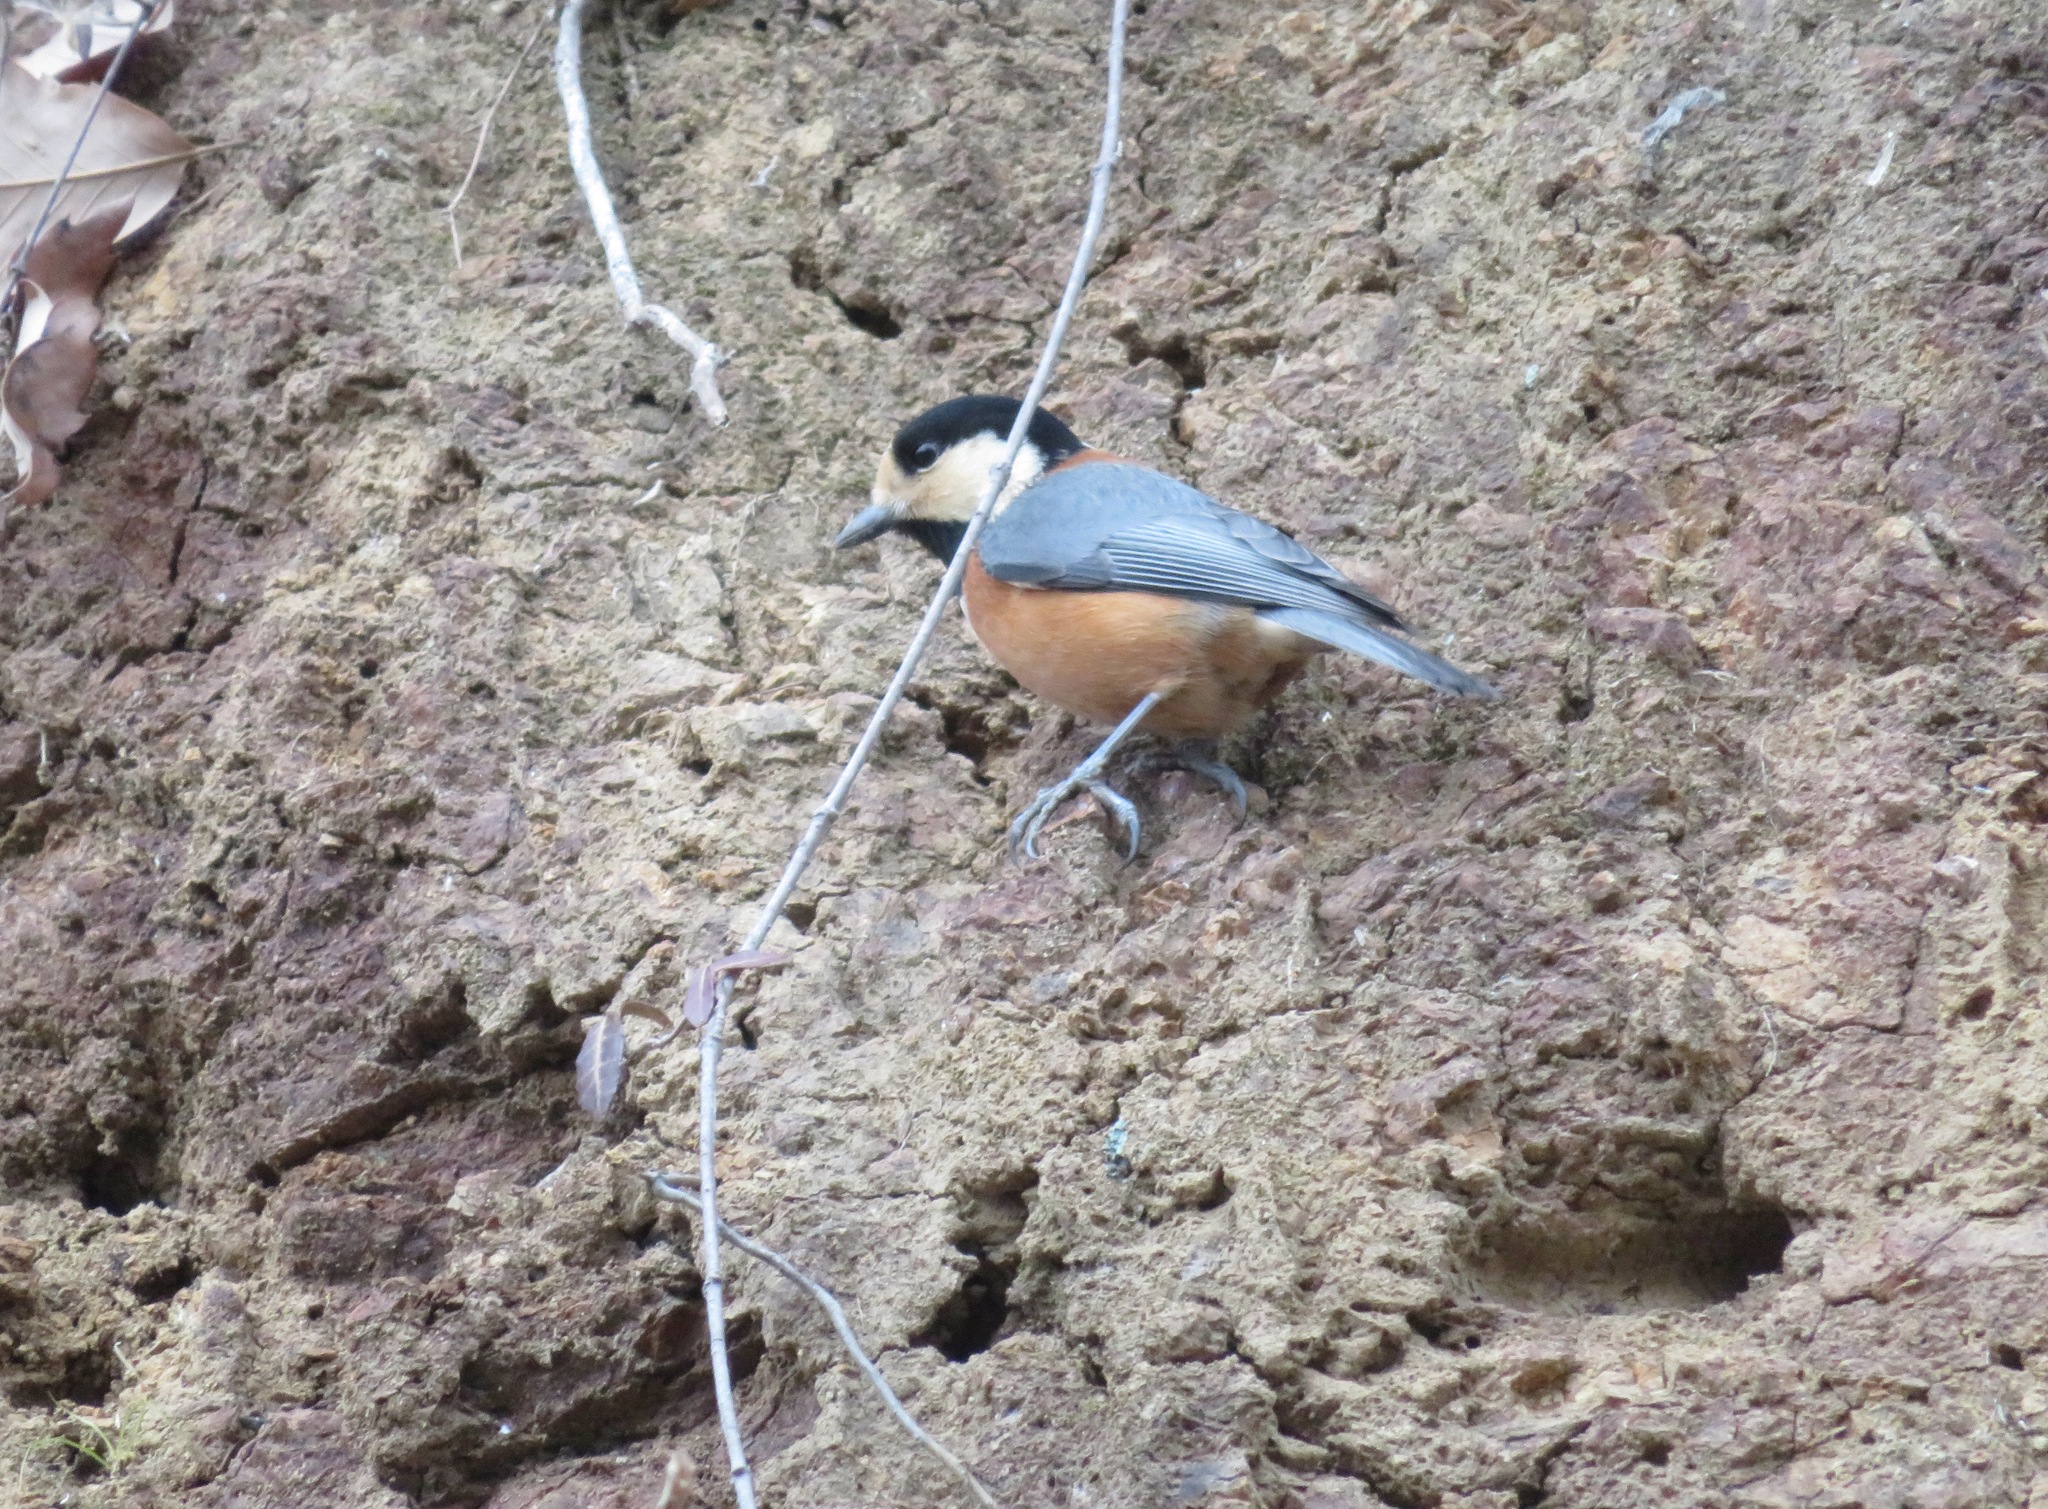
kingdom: Animalia
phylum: Chordata
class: Aves
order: Passeriformes
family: Paridae
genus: Poecile
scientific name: Poecile varius
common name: Varied tit
